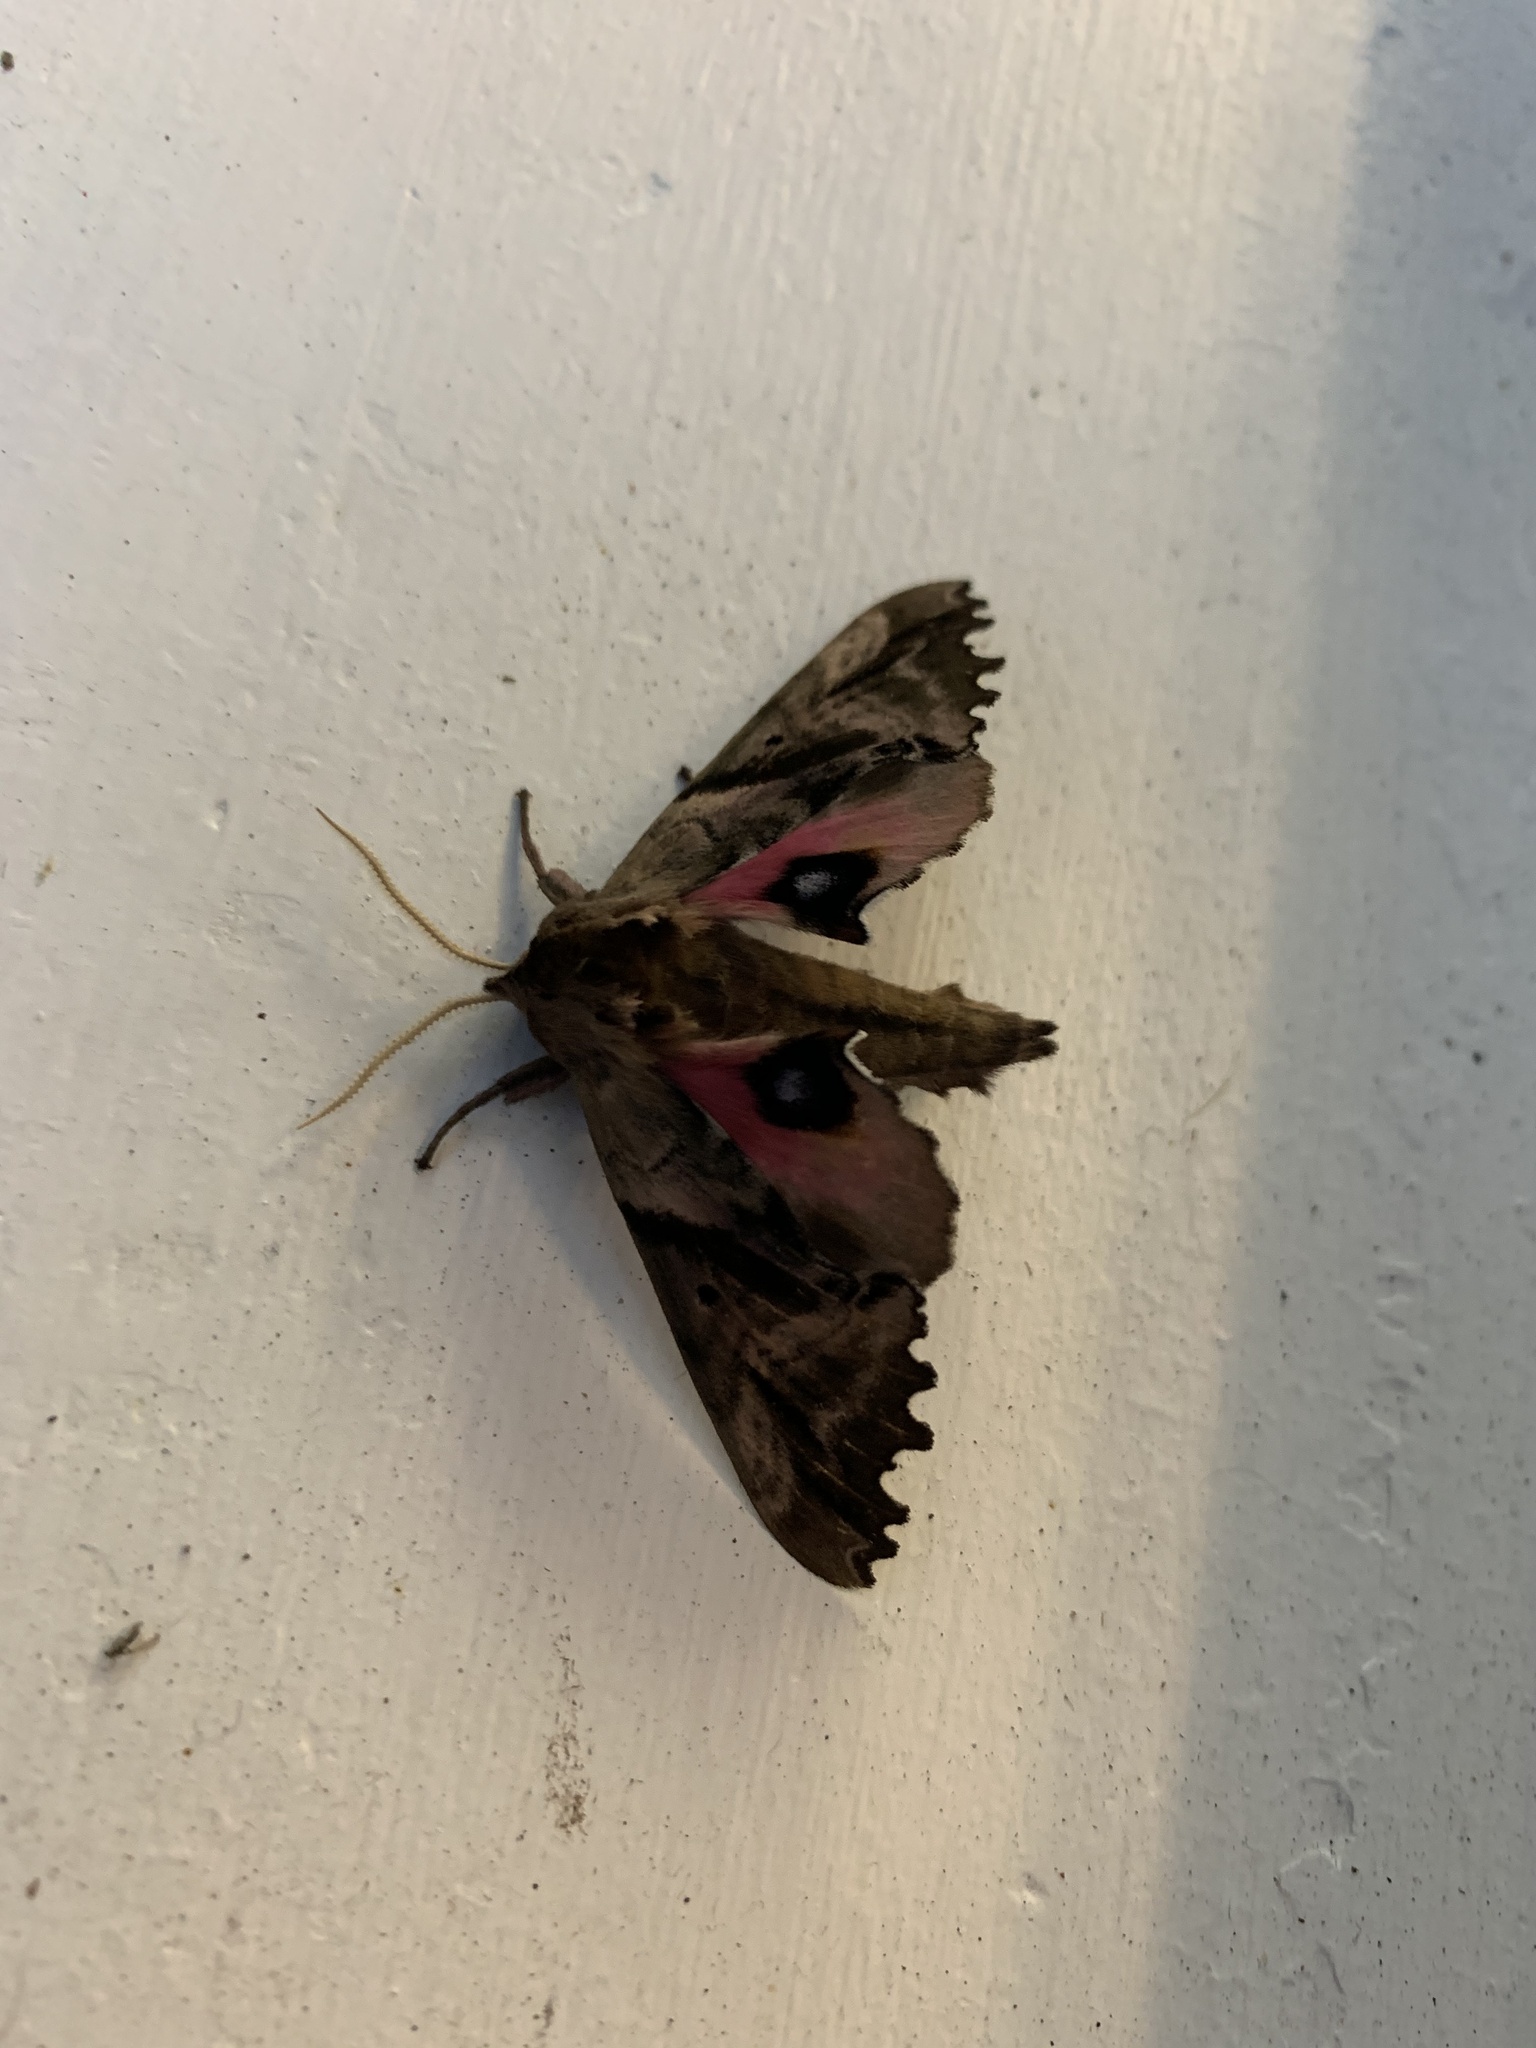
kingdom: Animalia
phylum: Arthropoda
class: Insecta
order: Lepidoptera
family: Sphingidae
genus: Paonias
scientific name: Paonias excaecata
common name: Blind-eyed sphinx
